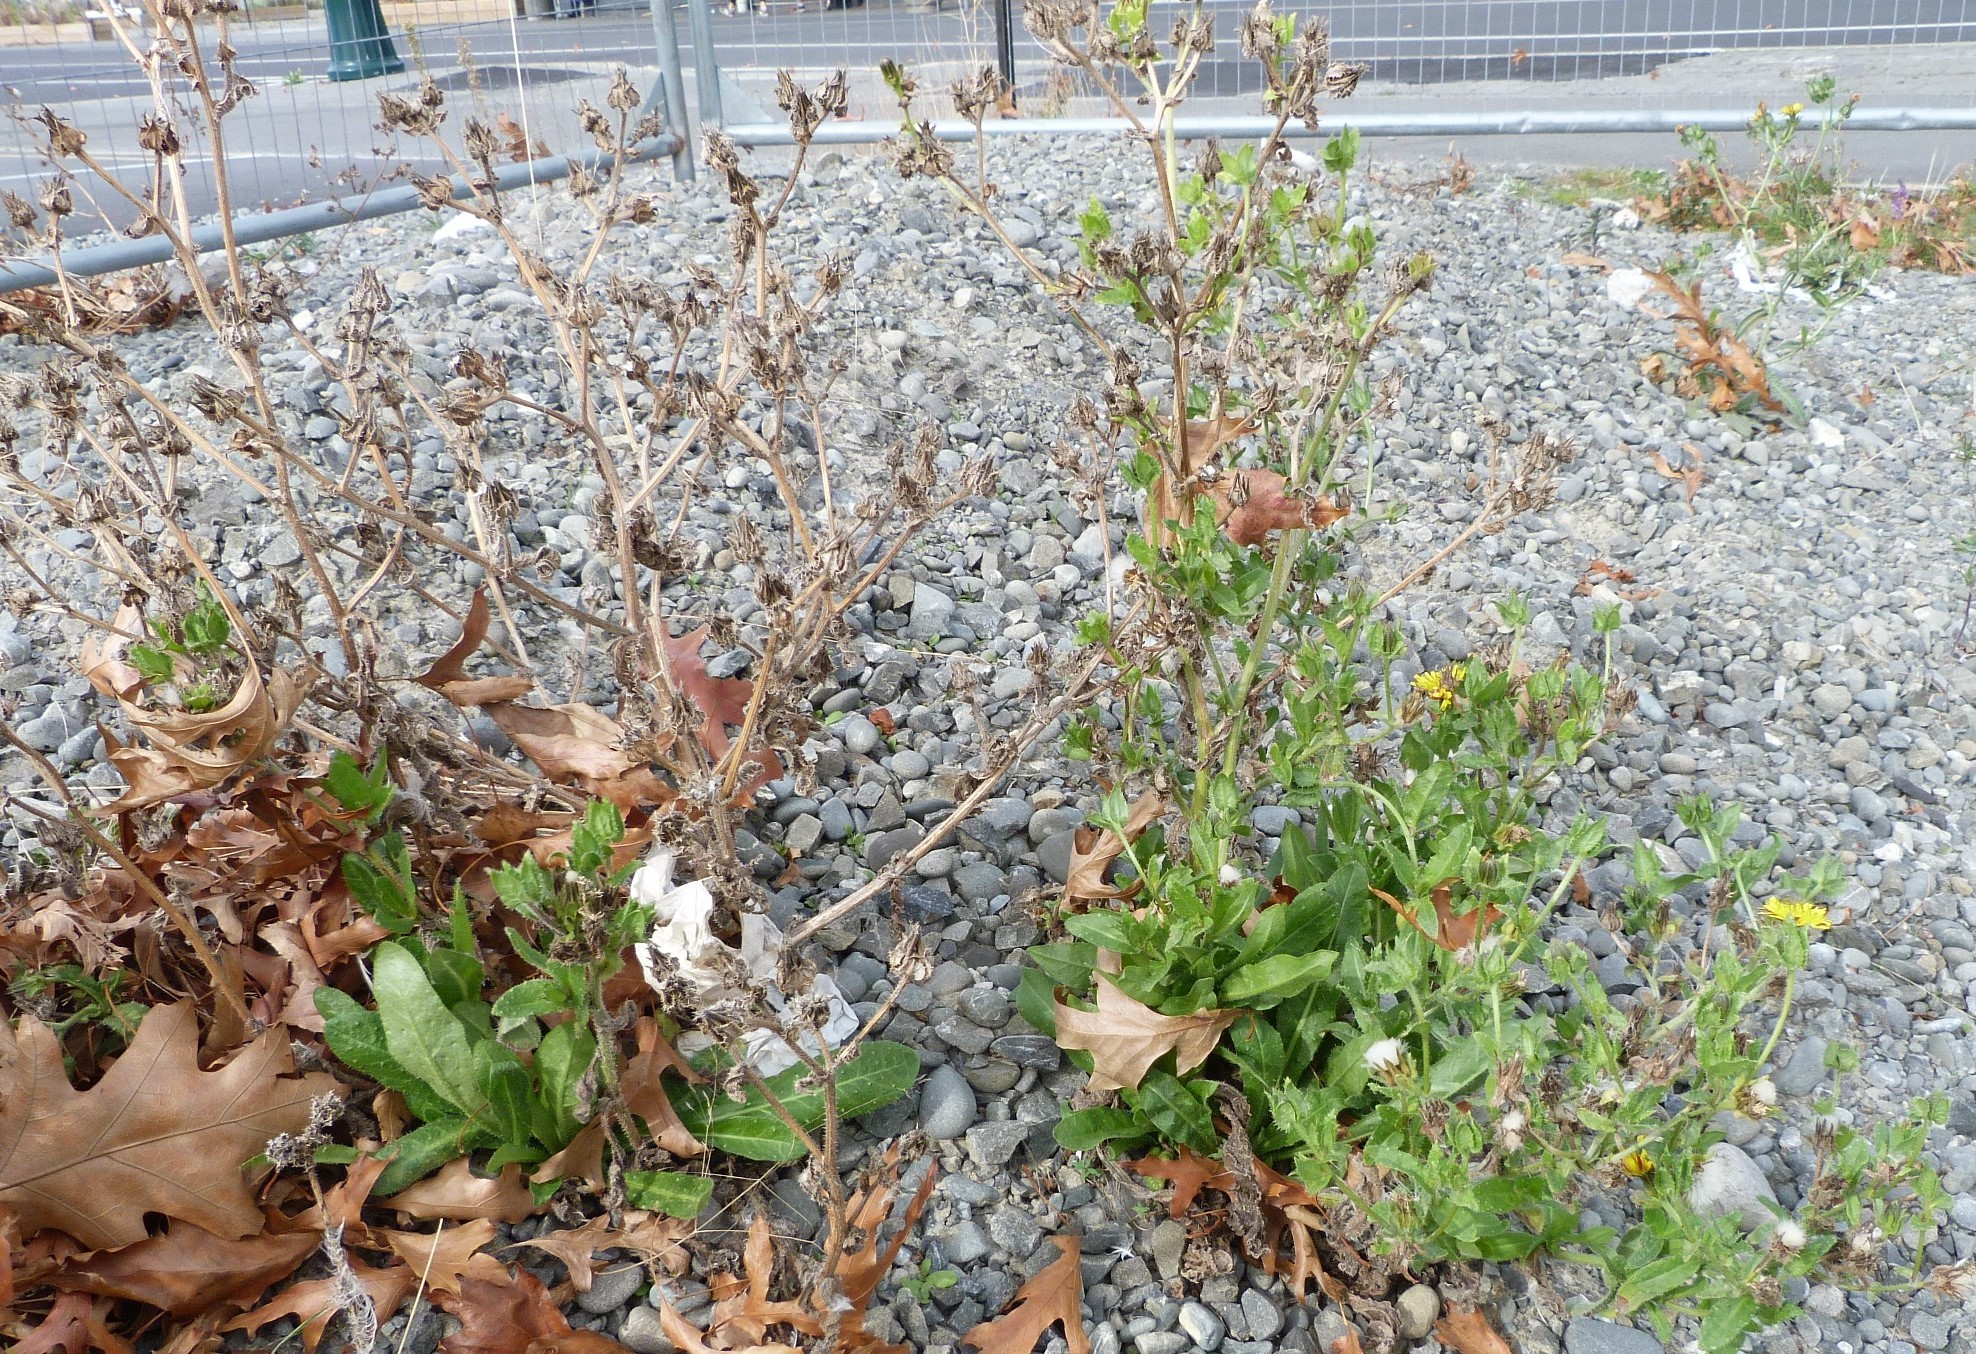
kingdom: Plantae
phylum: Tracheophyta
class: Magnoliopsida
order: Asterales
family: Asteraceae
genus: Helminthotheca
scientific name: Helminthotheca echioides
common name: Ox-tongue
